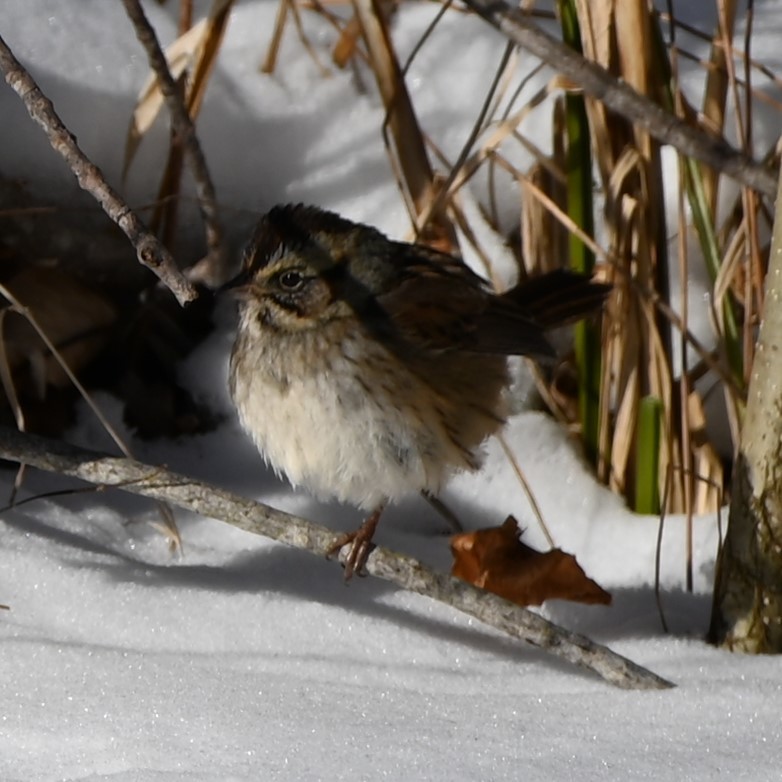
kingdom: Animalia
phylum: Chordata
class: Aves
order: Passeriformes
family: Passerellidae
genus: Melospiza
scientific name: Melospiza georgiana
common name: Swamp sparrow
